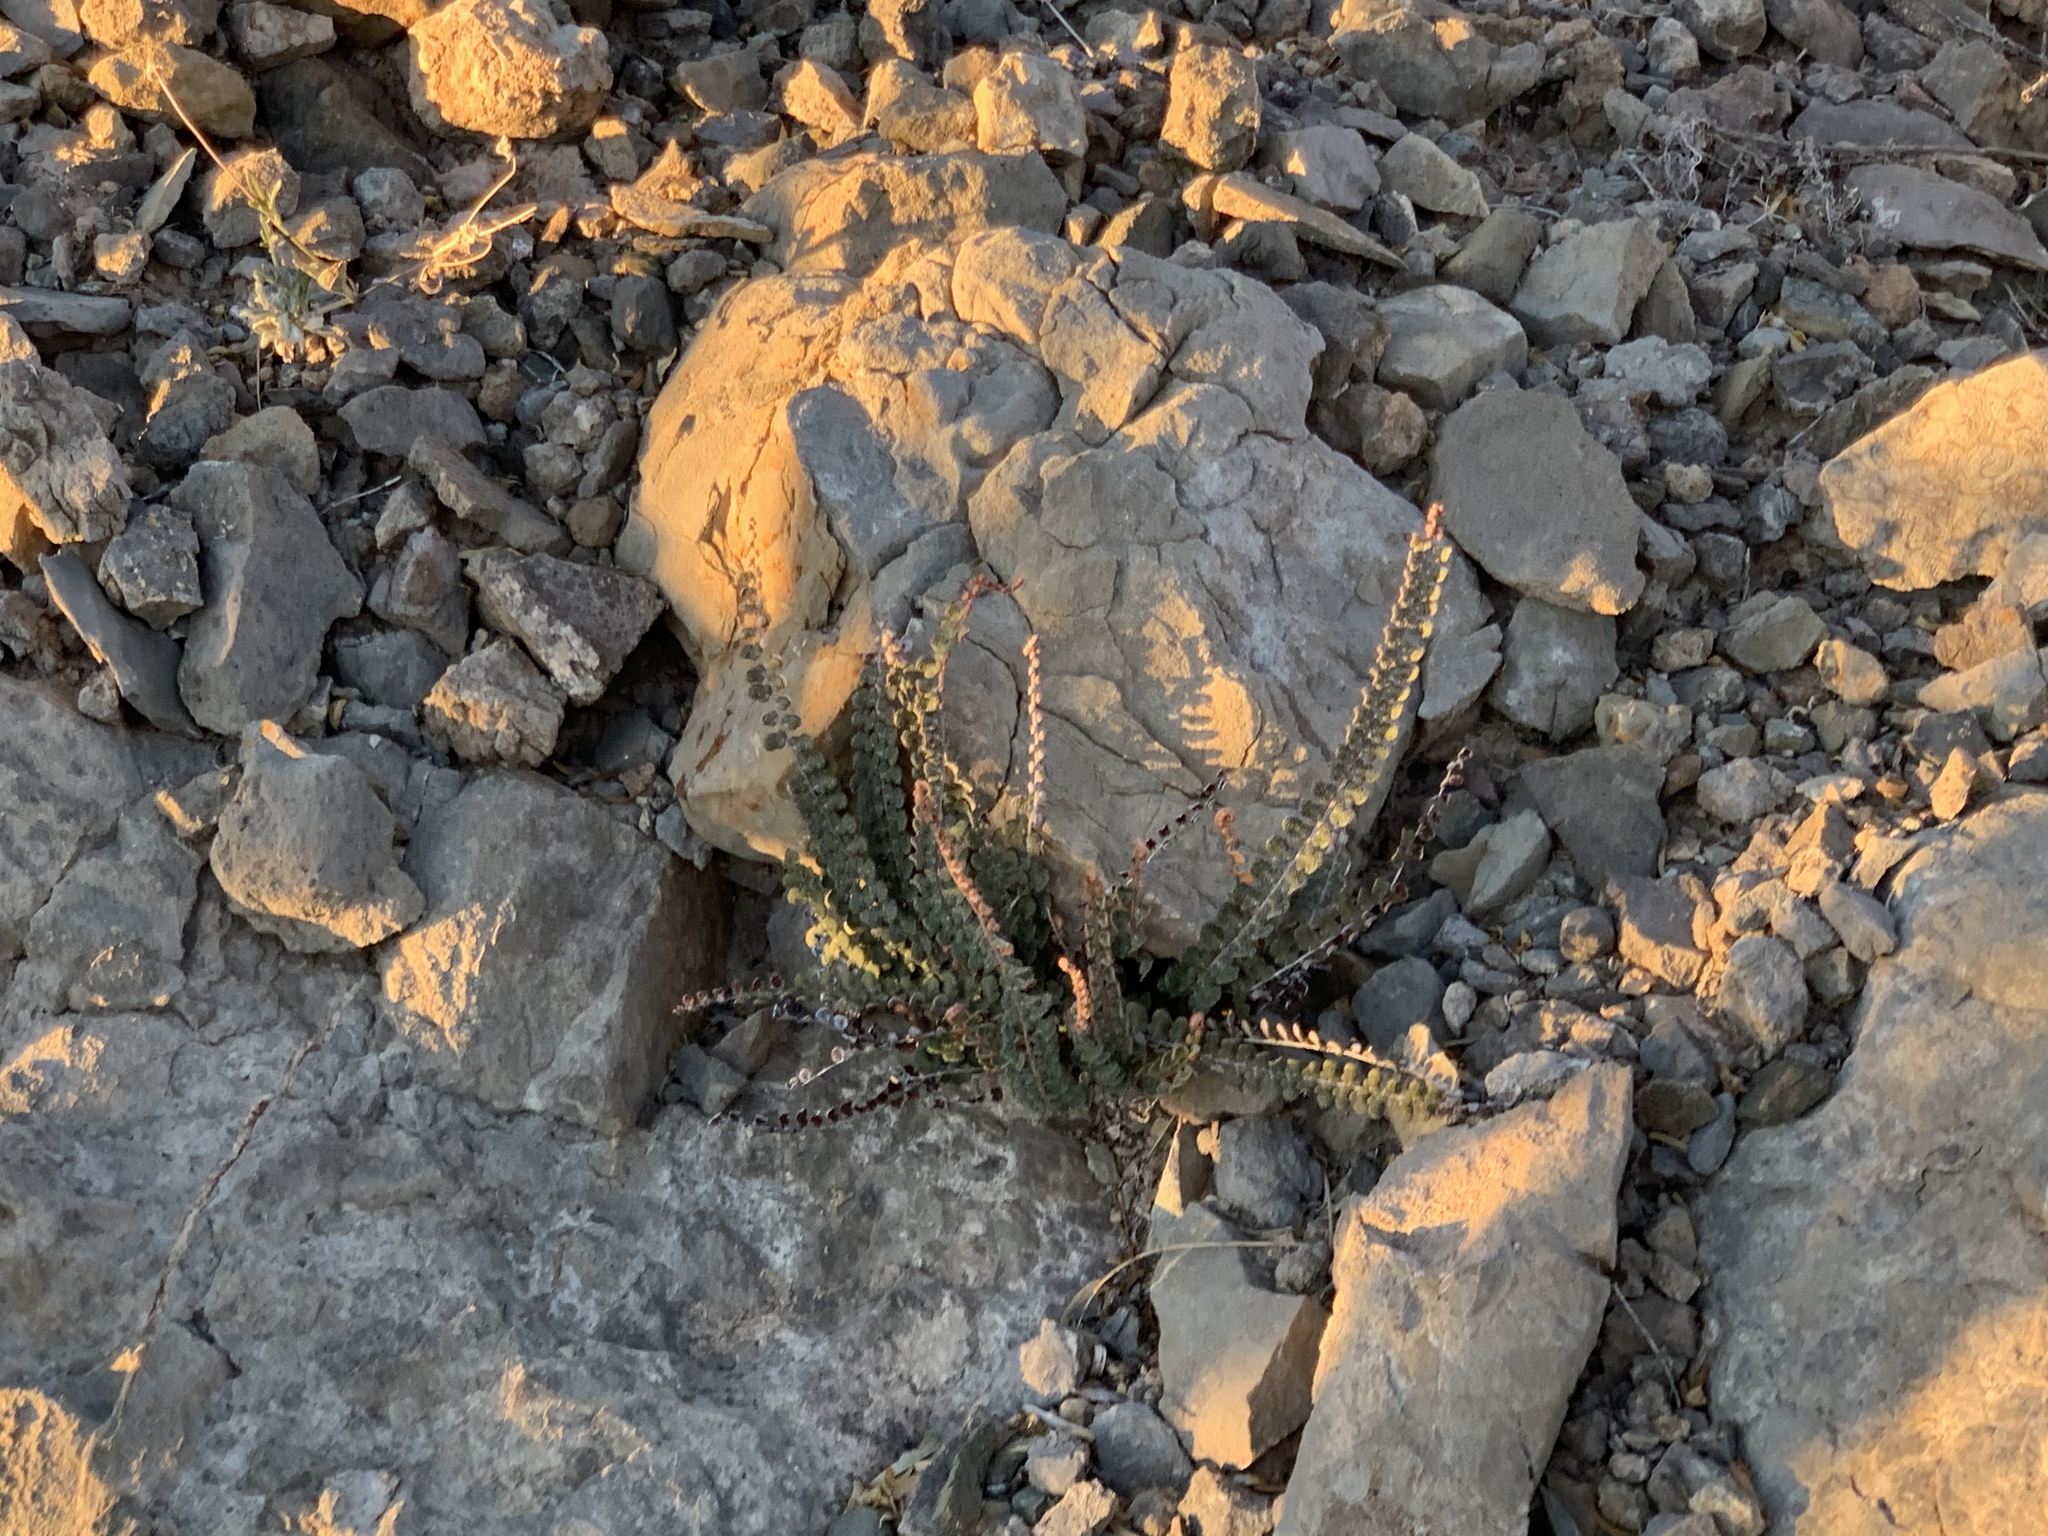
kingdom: Plantae
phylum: Tracheophyta
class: Polypodiopsida
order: Polypodiales
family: Pteridaceae
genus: Astrolepis
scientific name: Astrolepis cochisensis
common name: Scaly cloak fern
